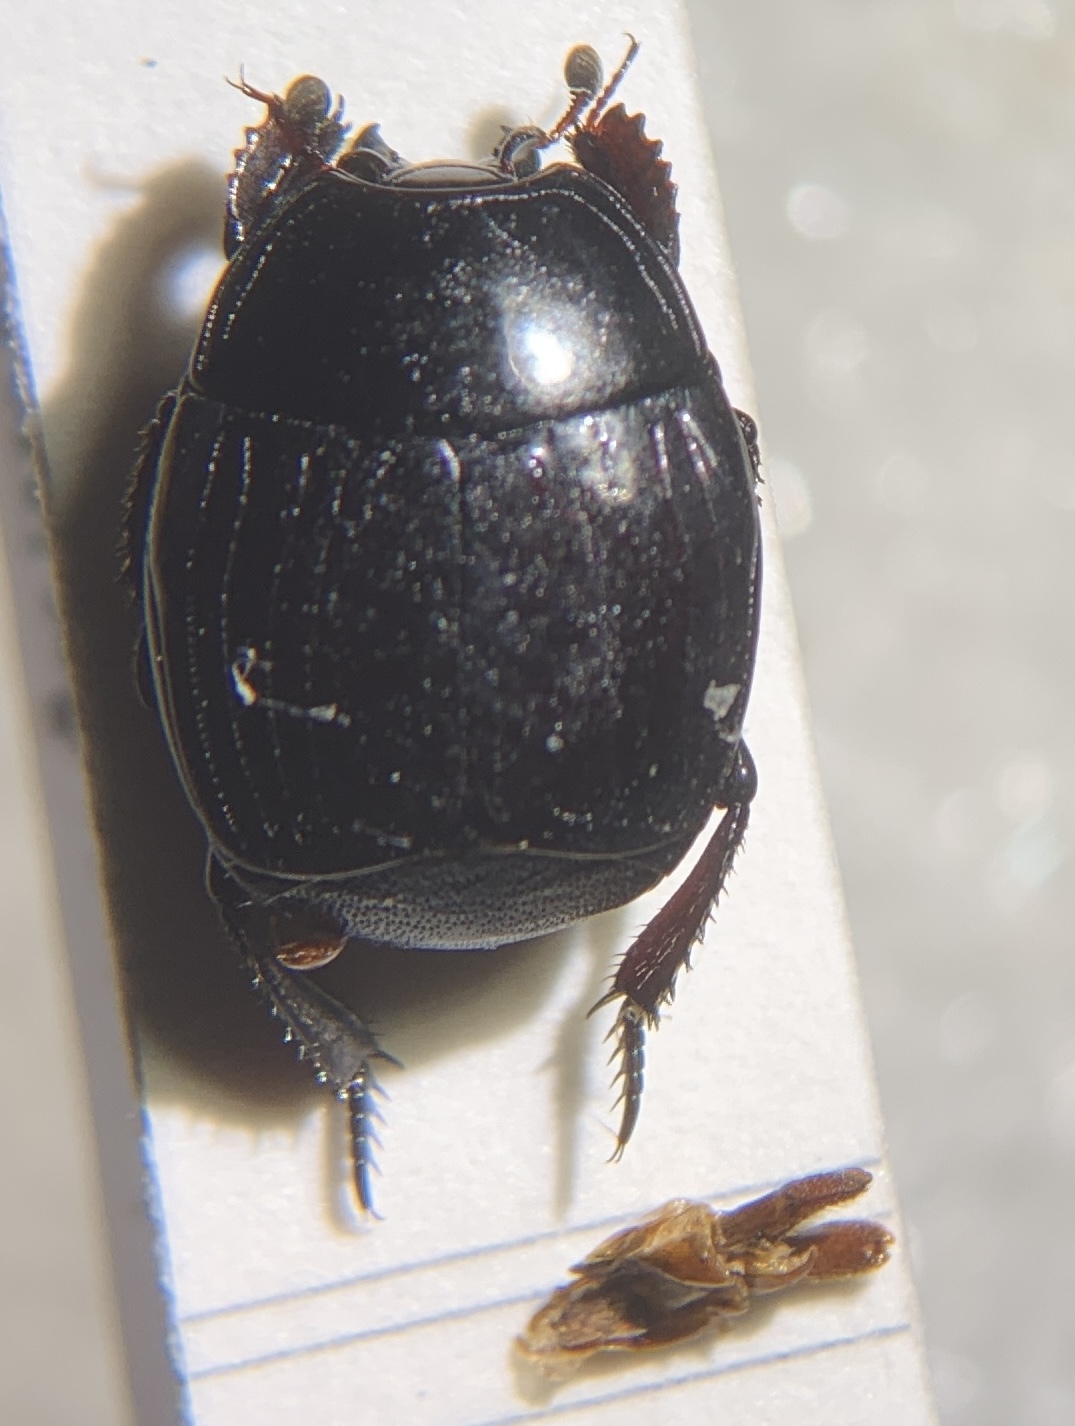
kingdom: Animalia
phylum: Arthropoda
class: Insecta
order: Coleoptera
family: Histeridae
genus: Margarinotus
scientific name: Margarinotus brunneus
